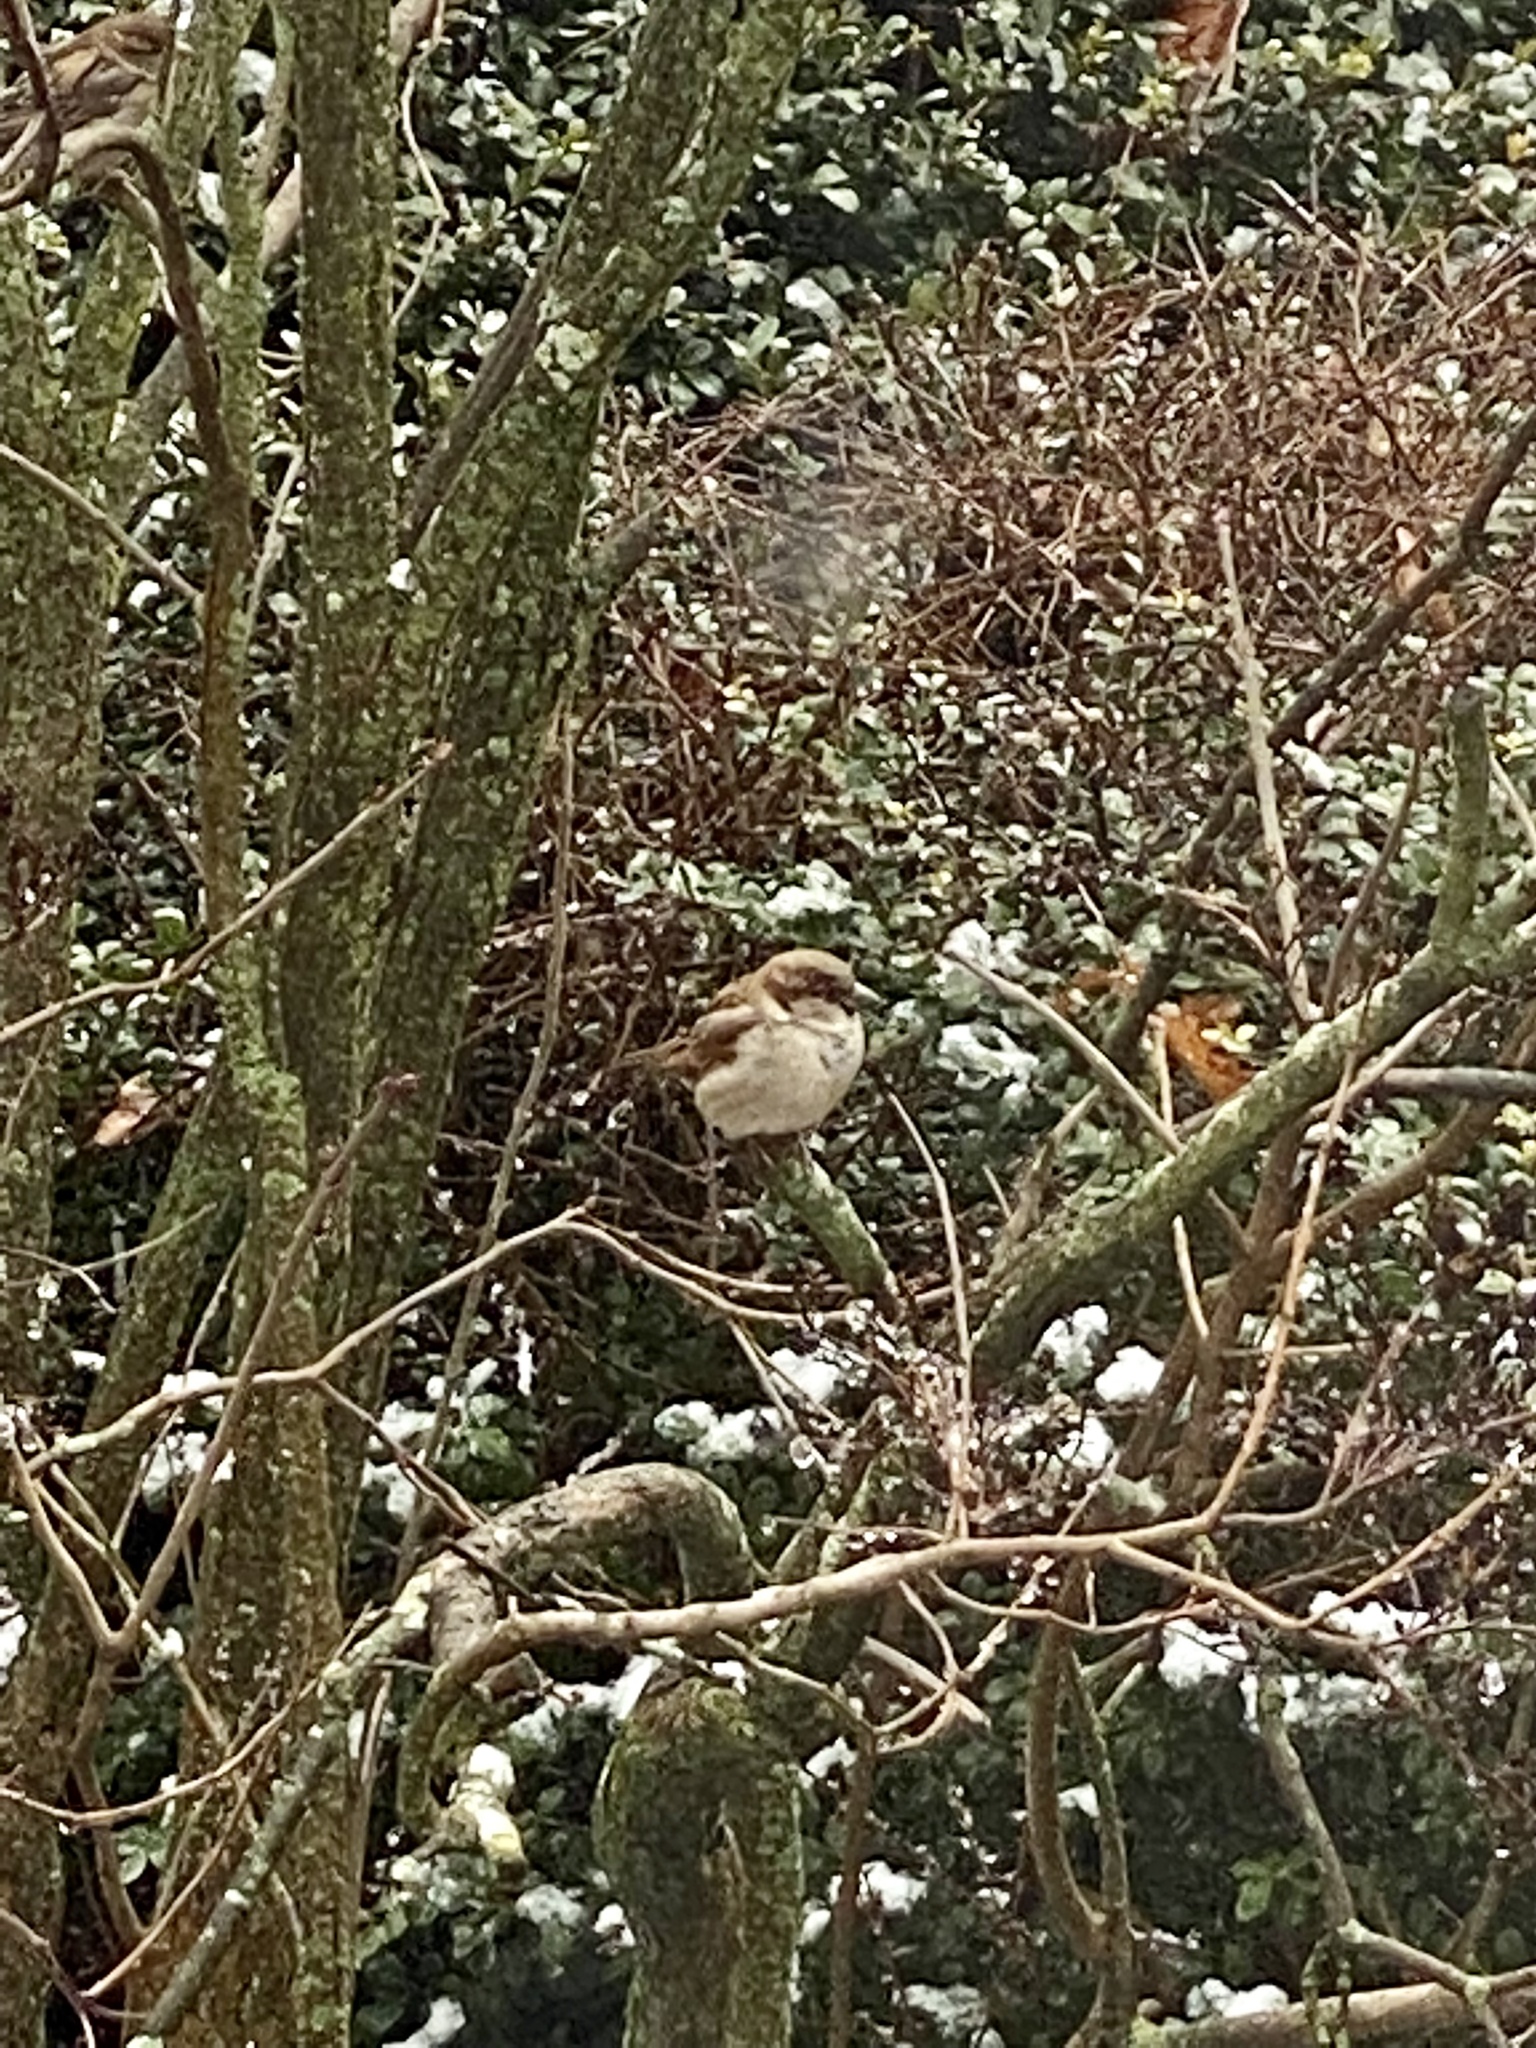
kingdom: Animalia
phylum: Chordata
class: Aves
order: Passeriformes
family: Passeridae
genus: Passer
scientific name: Passer domesticus
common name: House sparrow
